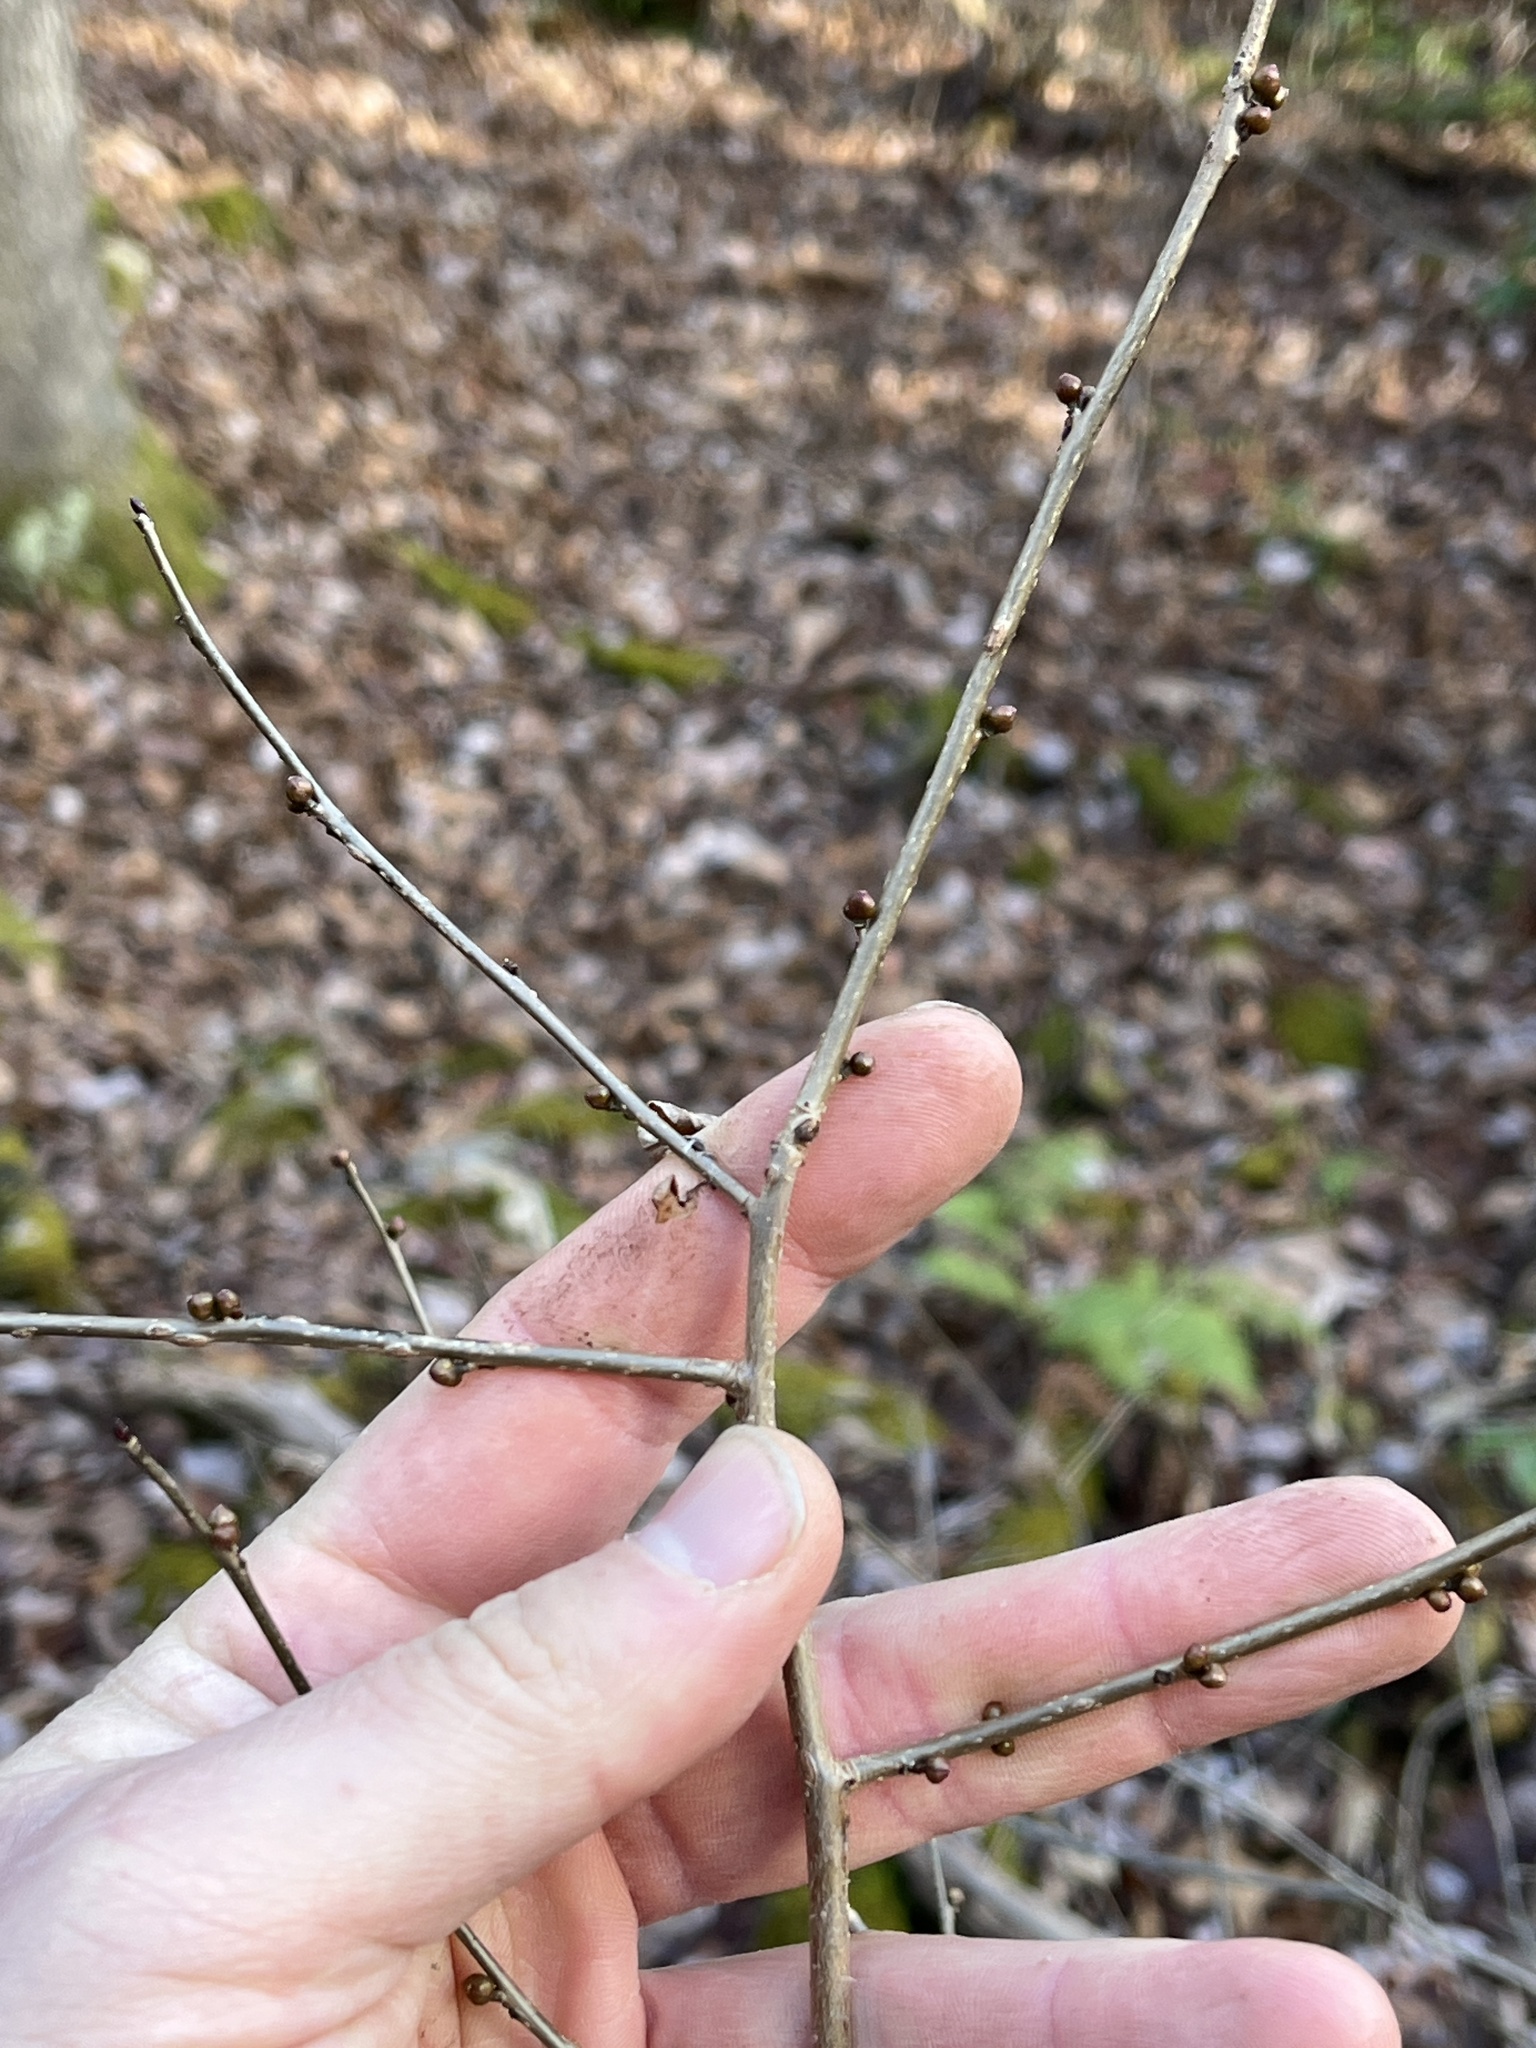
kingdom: Plantae
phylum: Tracheophyta
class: Magnoliopsida
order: Laurales
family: Lauraceae
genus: Lindera
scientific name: Lindera benzoin
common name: Spicebush
